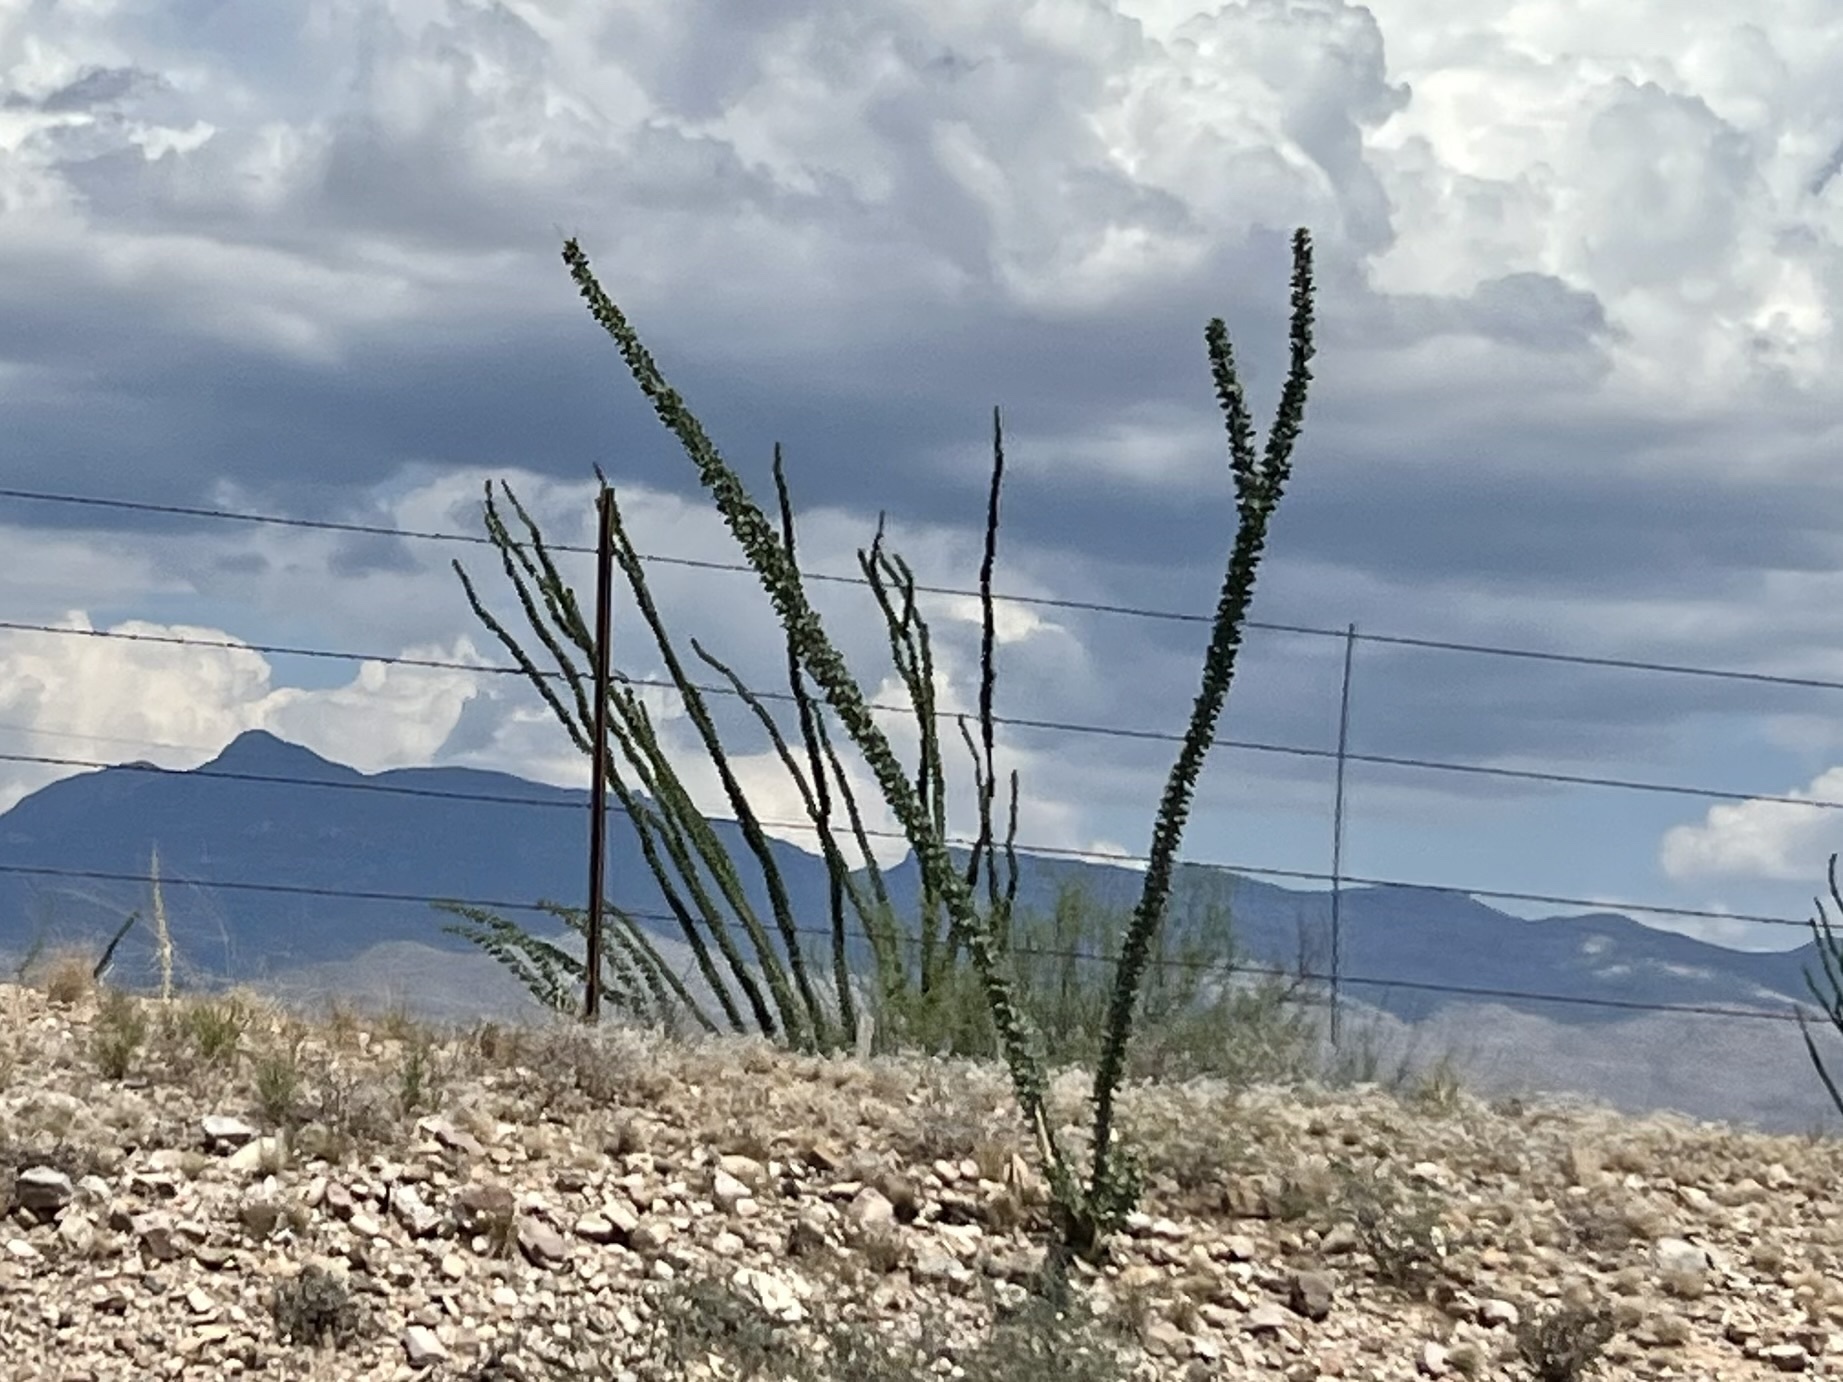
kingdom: Plantae
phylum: Tracheophyta
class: Magnoliopsida
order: Ericales
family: Fouquieriaceae
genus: Fouquieria
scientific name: Fouquieria splendens
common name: Vine-cactus
